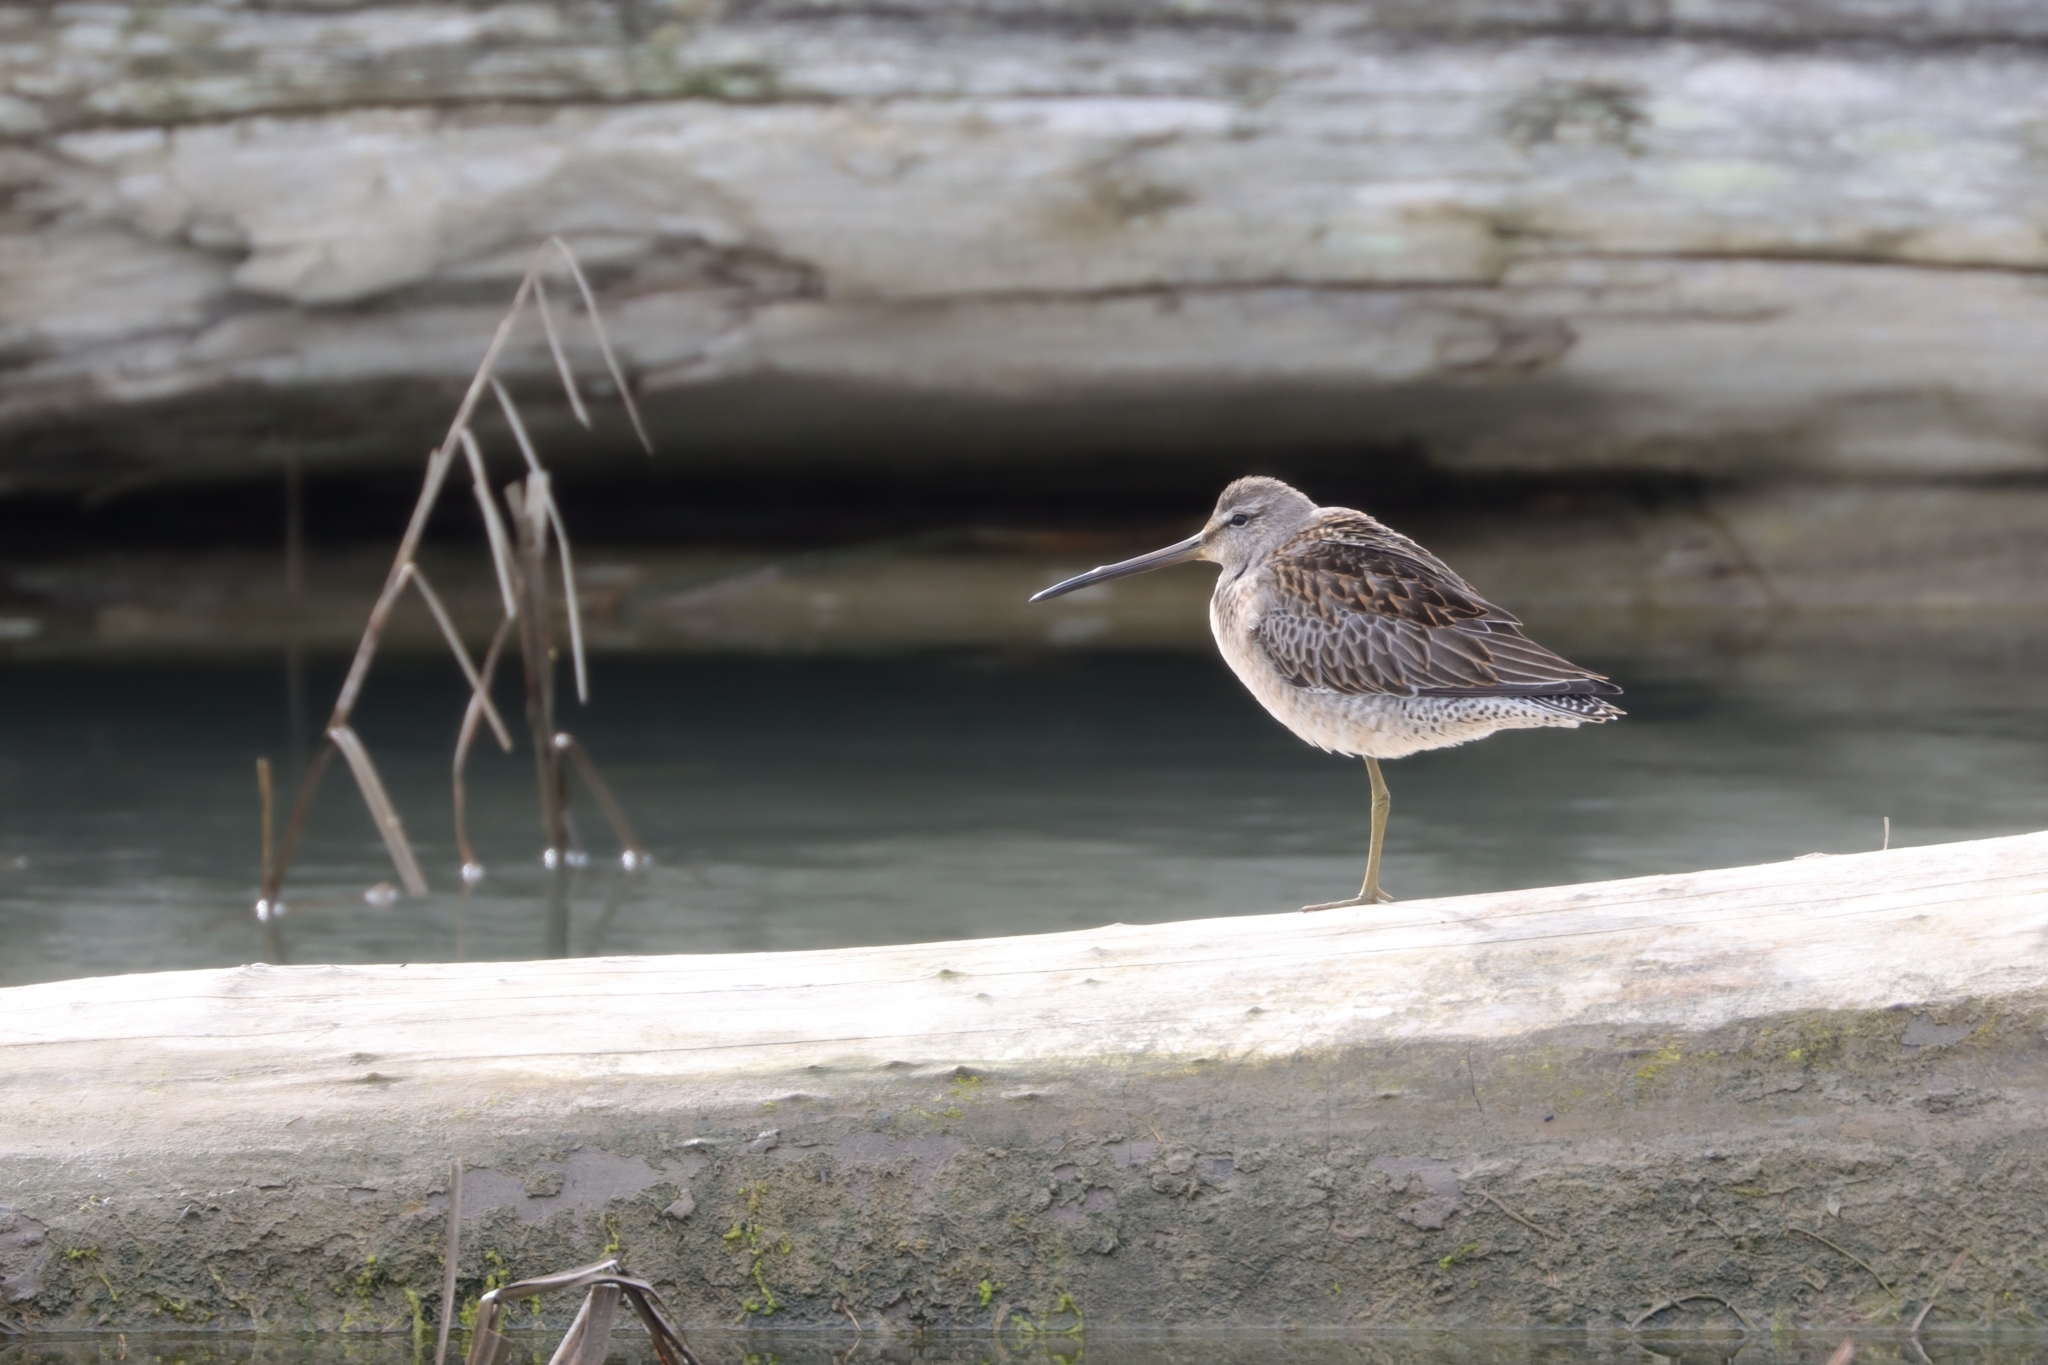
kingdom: Animalia
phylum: Chordata
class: Aves
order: Charadriiformes
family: Scolopacidae
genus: Limnodromus
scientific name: Limnodromus scolopaceus
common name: Long-billed dowitcher
